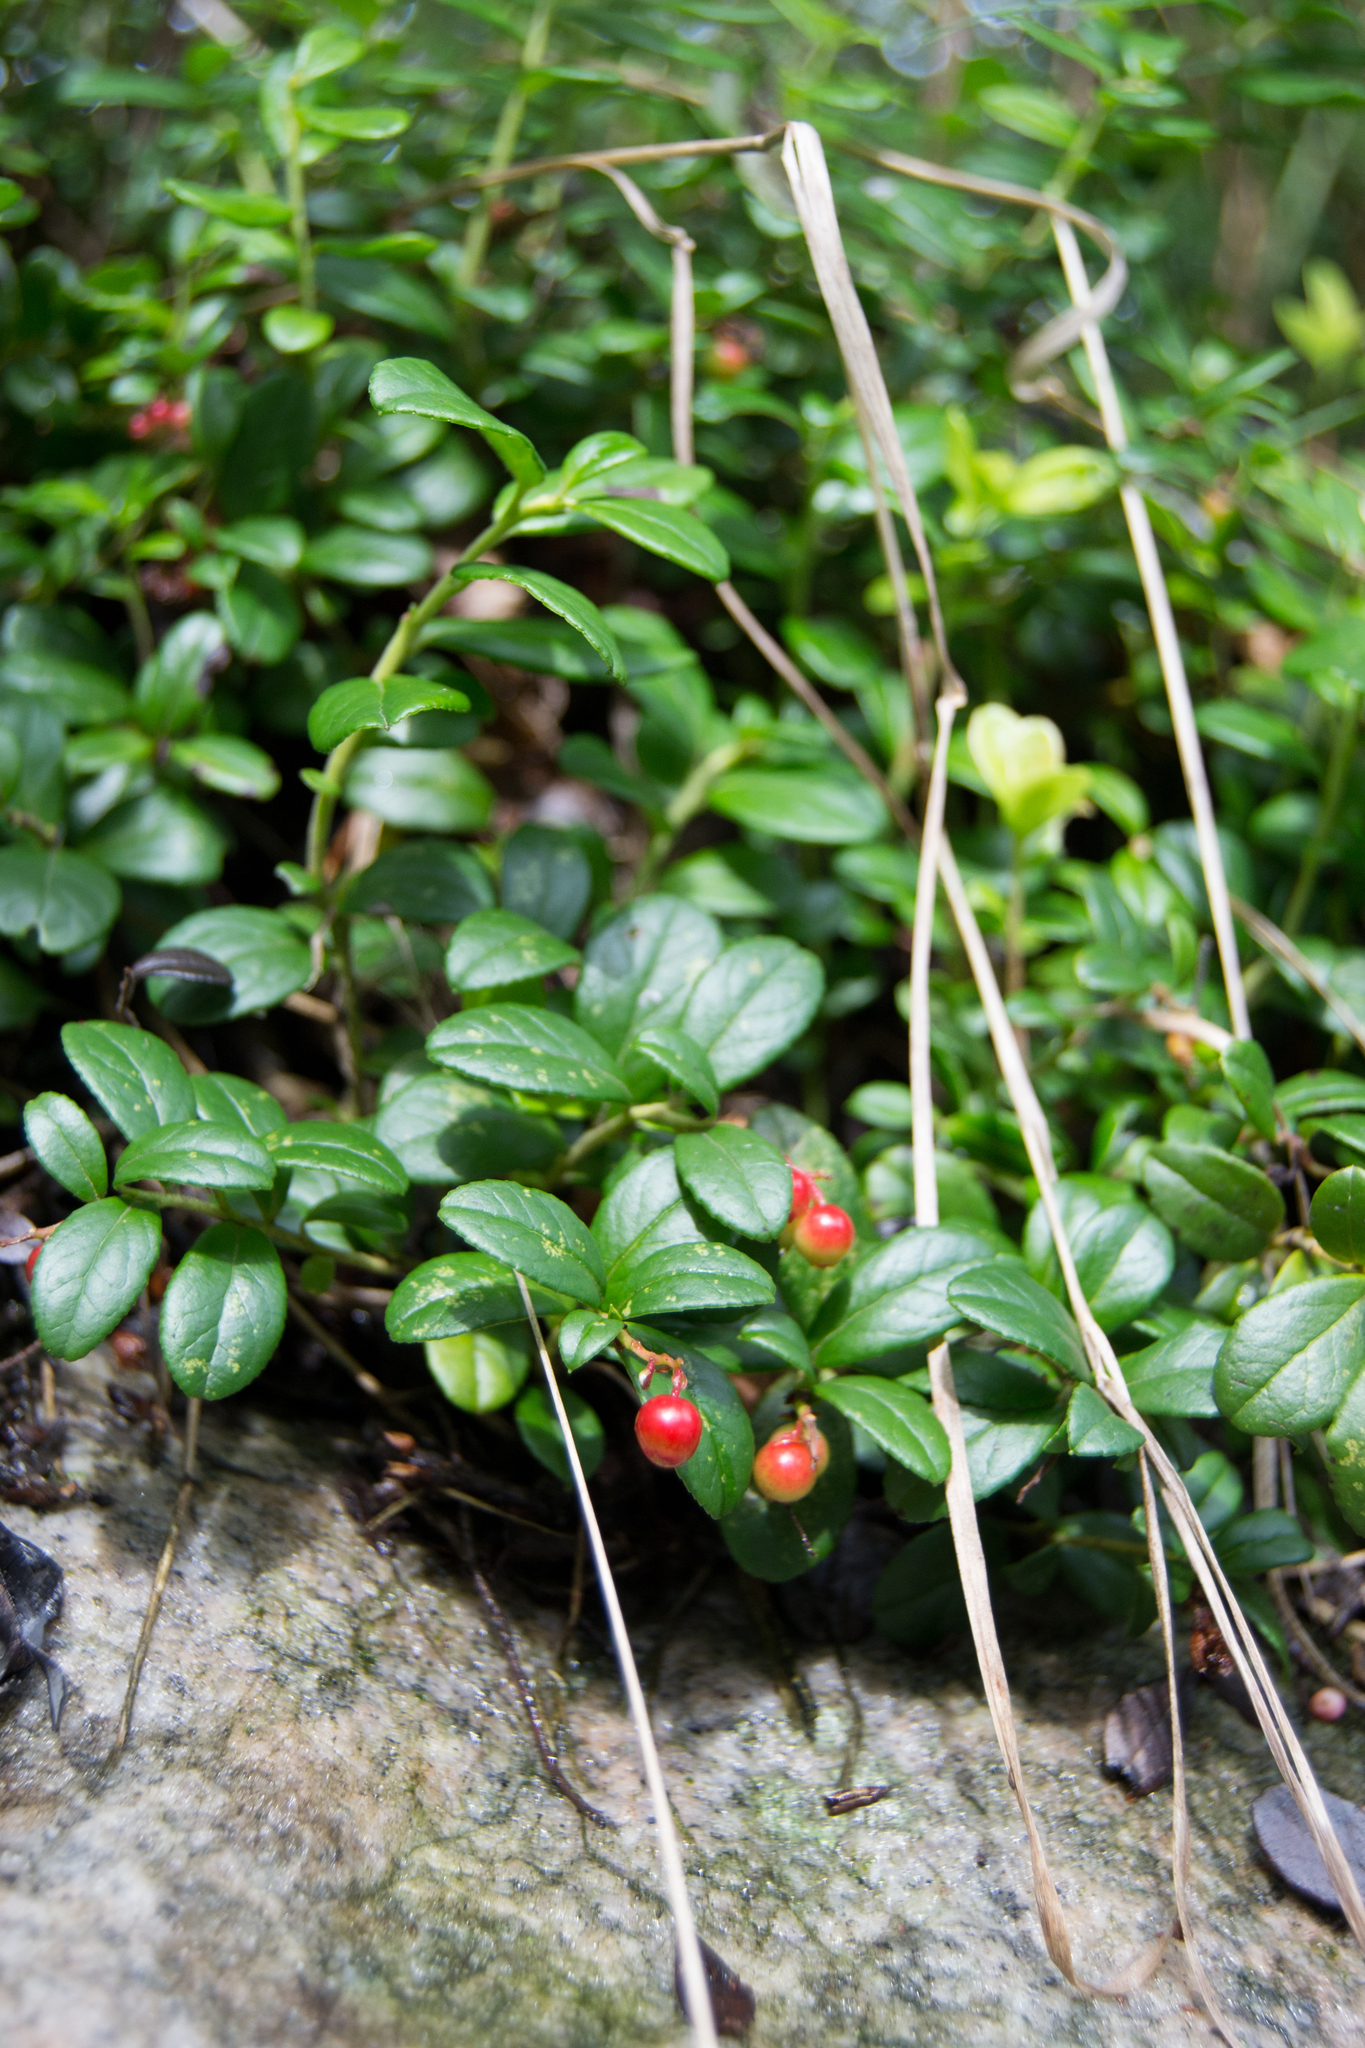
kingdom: Plantae
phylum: Tracheophyta
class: Magnoliopsida
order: Ericales
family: Ericaceae
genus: Vaccinium
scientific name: Vaccinium vitis-idaea
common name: Cowberry
